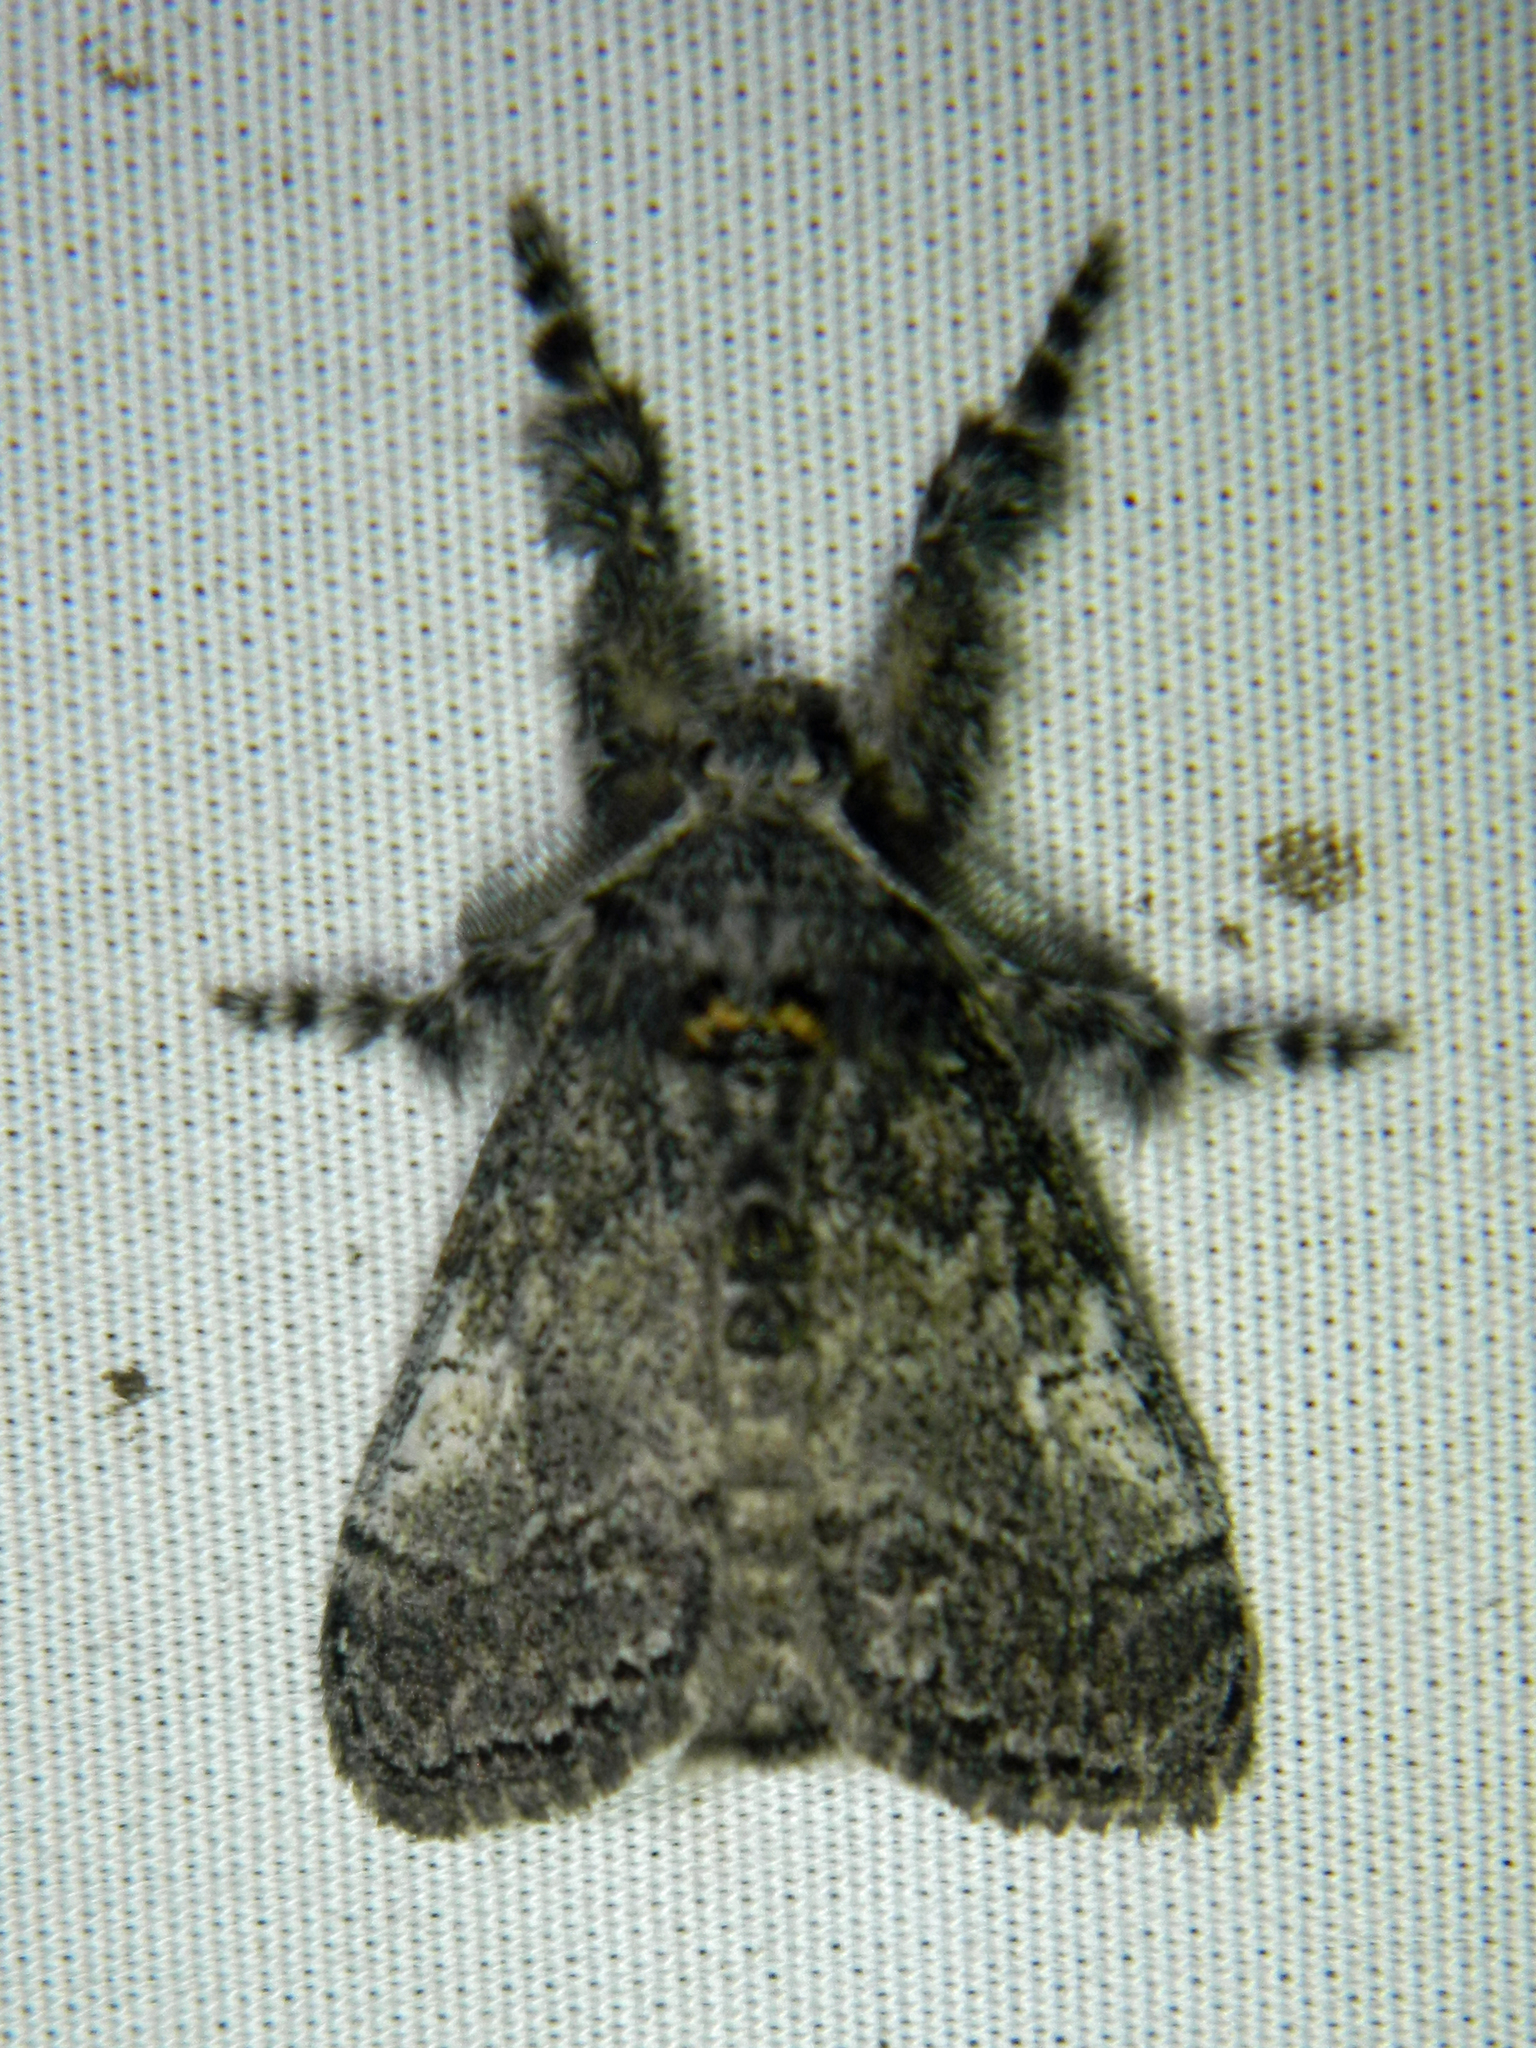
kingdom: Animalia
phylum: Arthropoda
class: Insecta
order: Lepidoptera
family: Erebidae
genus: Dasychira
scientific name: Dasychira vagans
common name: Variable tussock moth
